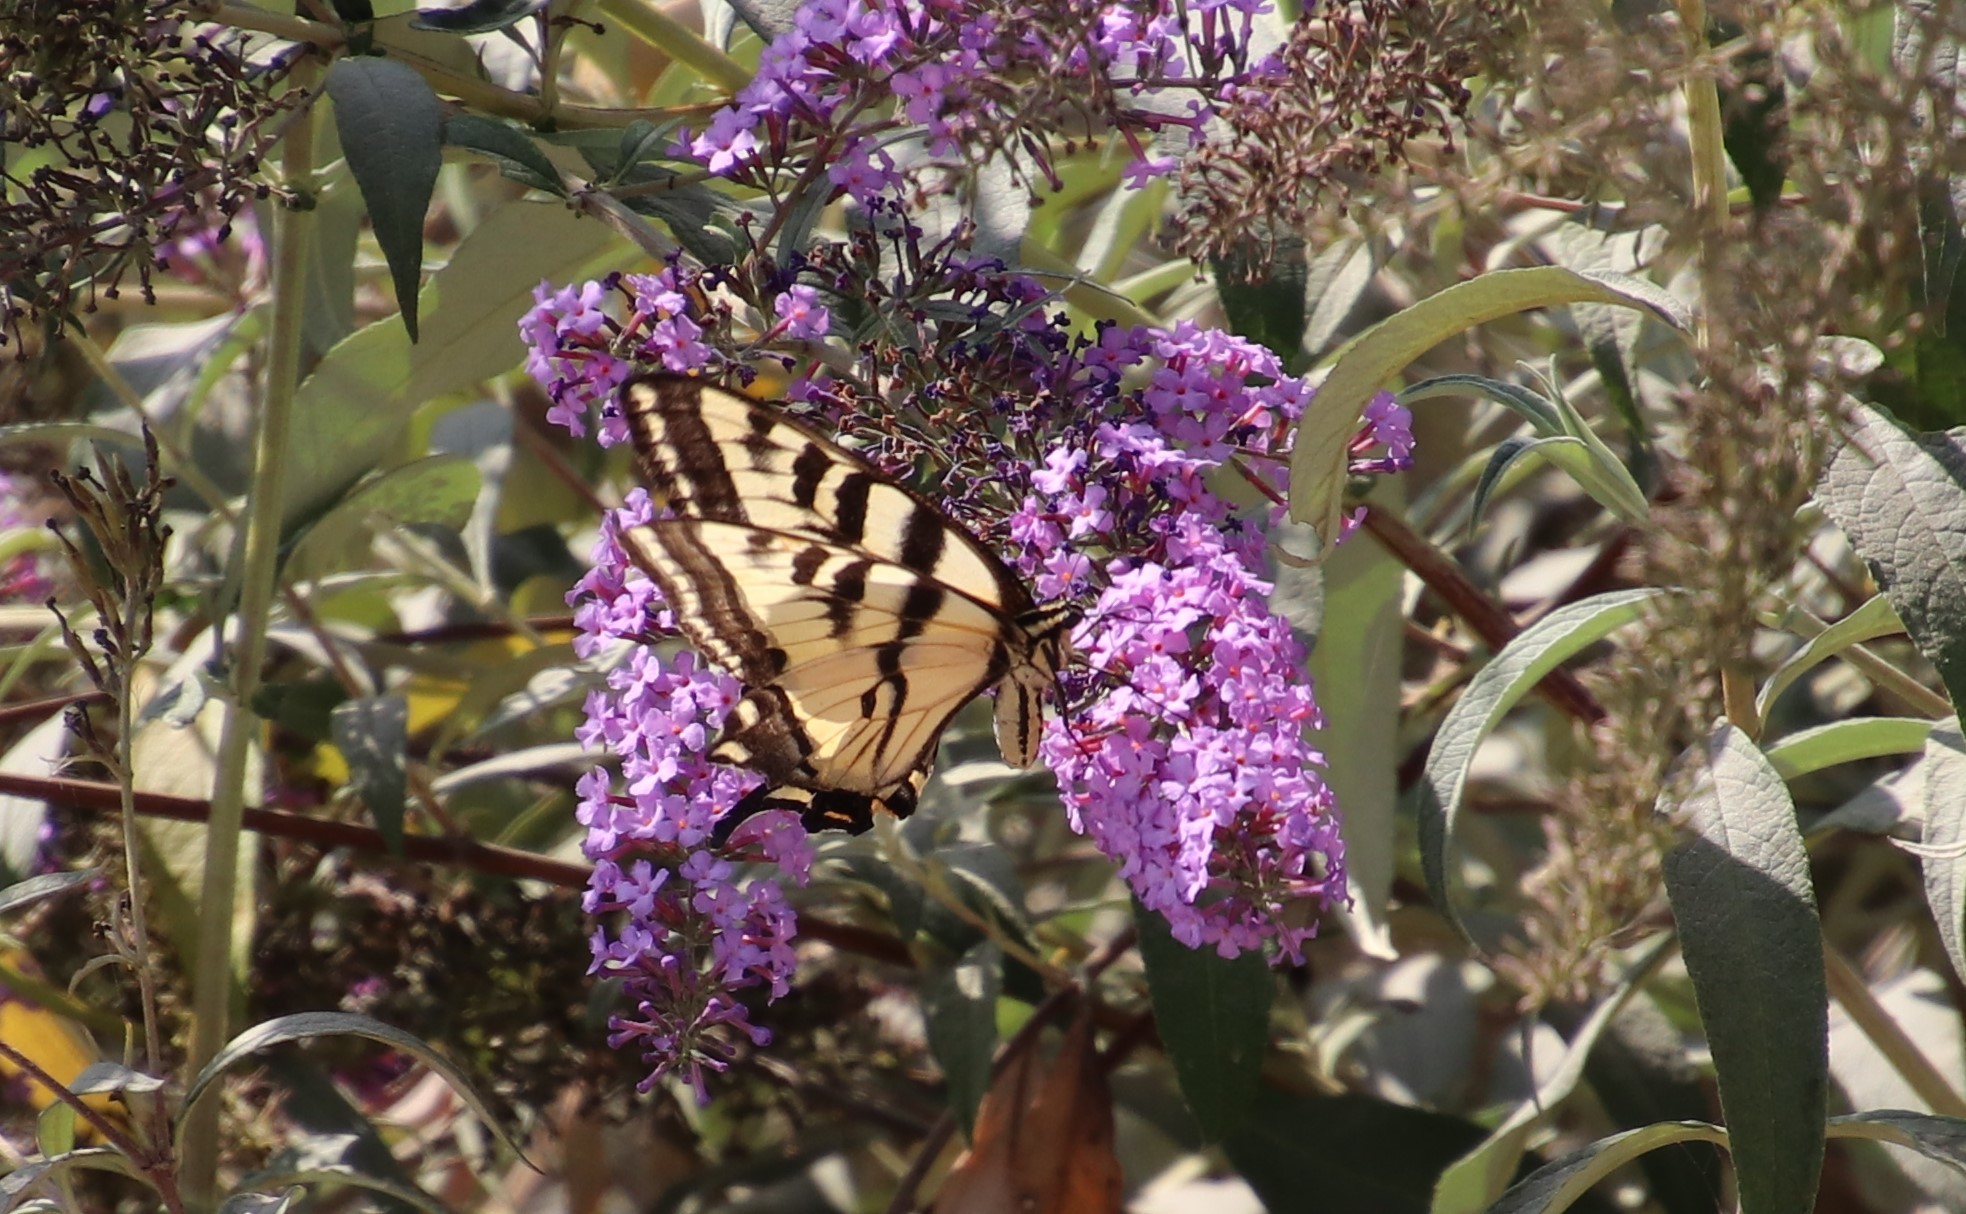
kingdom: Animalia
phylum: Arthropoda
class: Insecta
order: Lepidoptera
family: Papilionidae
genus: Papilio
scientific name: Papilio rutulus
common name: Western tiger swallowtail
